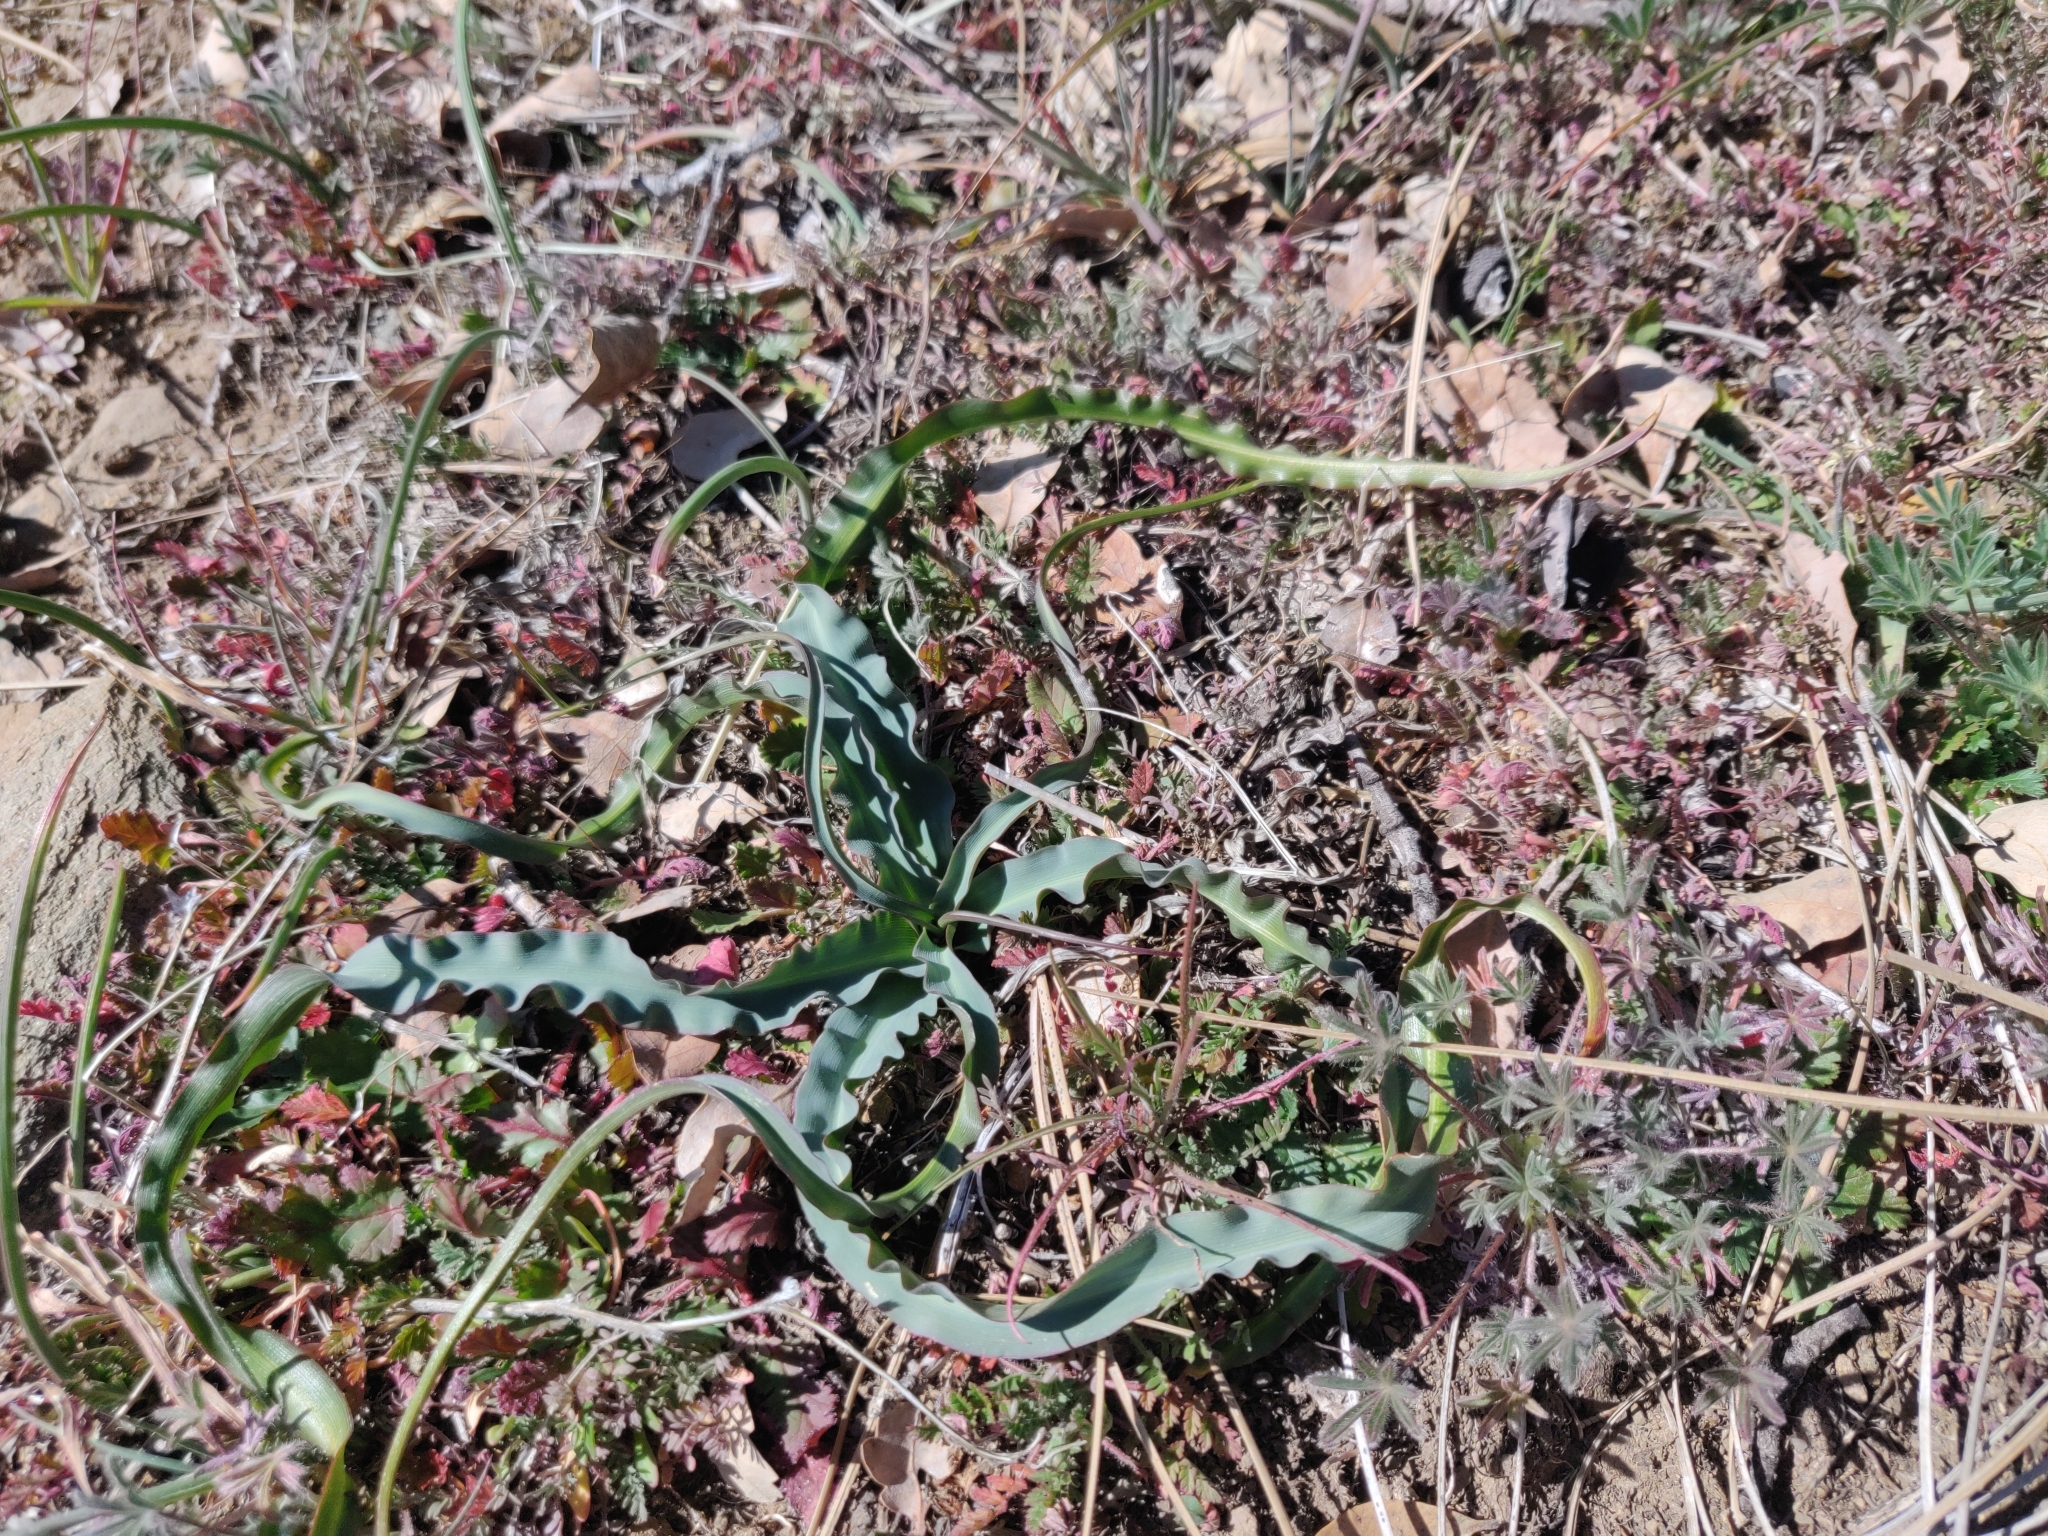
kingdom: Plantae
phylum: Tracheophyta
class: Liliopsida
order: Asparagales
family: Asparagaceae
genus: Chlorogalum
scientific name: Chlorogalum pomeridianum
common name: Amole
